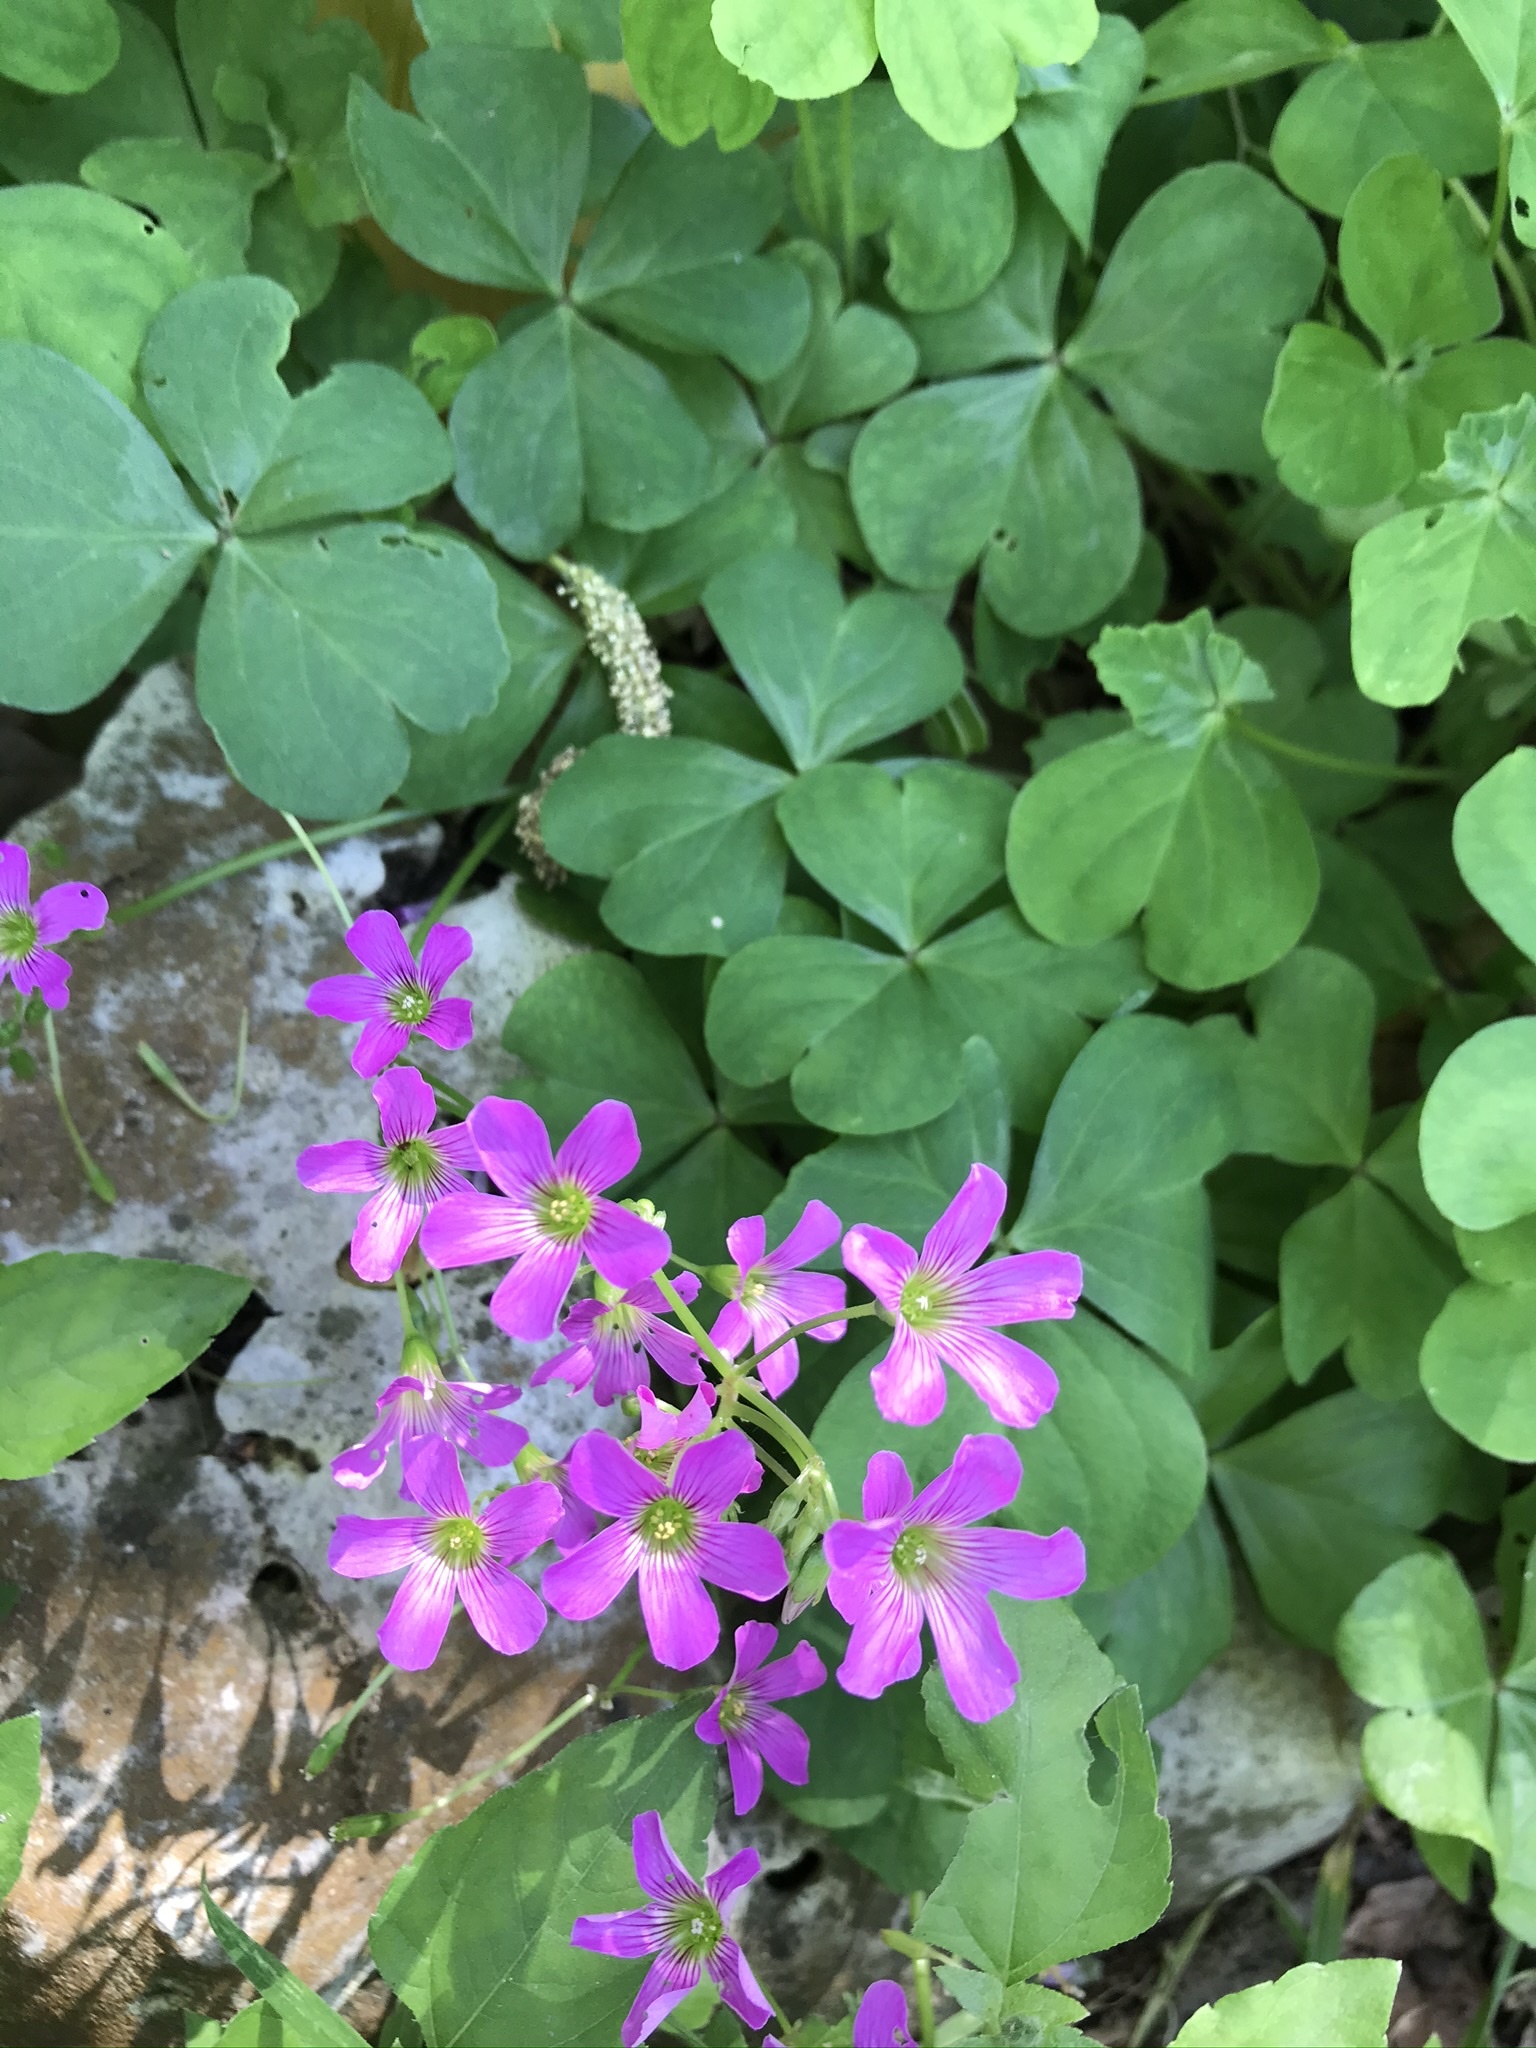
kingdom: Plantae
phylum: Tracheophyta
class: Magnoliopsida
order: Oxalidales
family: Oxalidaceae
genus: Oxalis
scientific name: Oxalis debilis
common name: Large-flowered pink-sorrel
